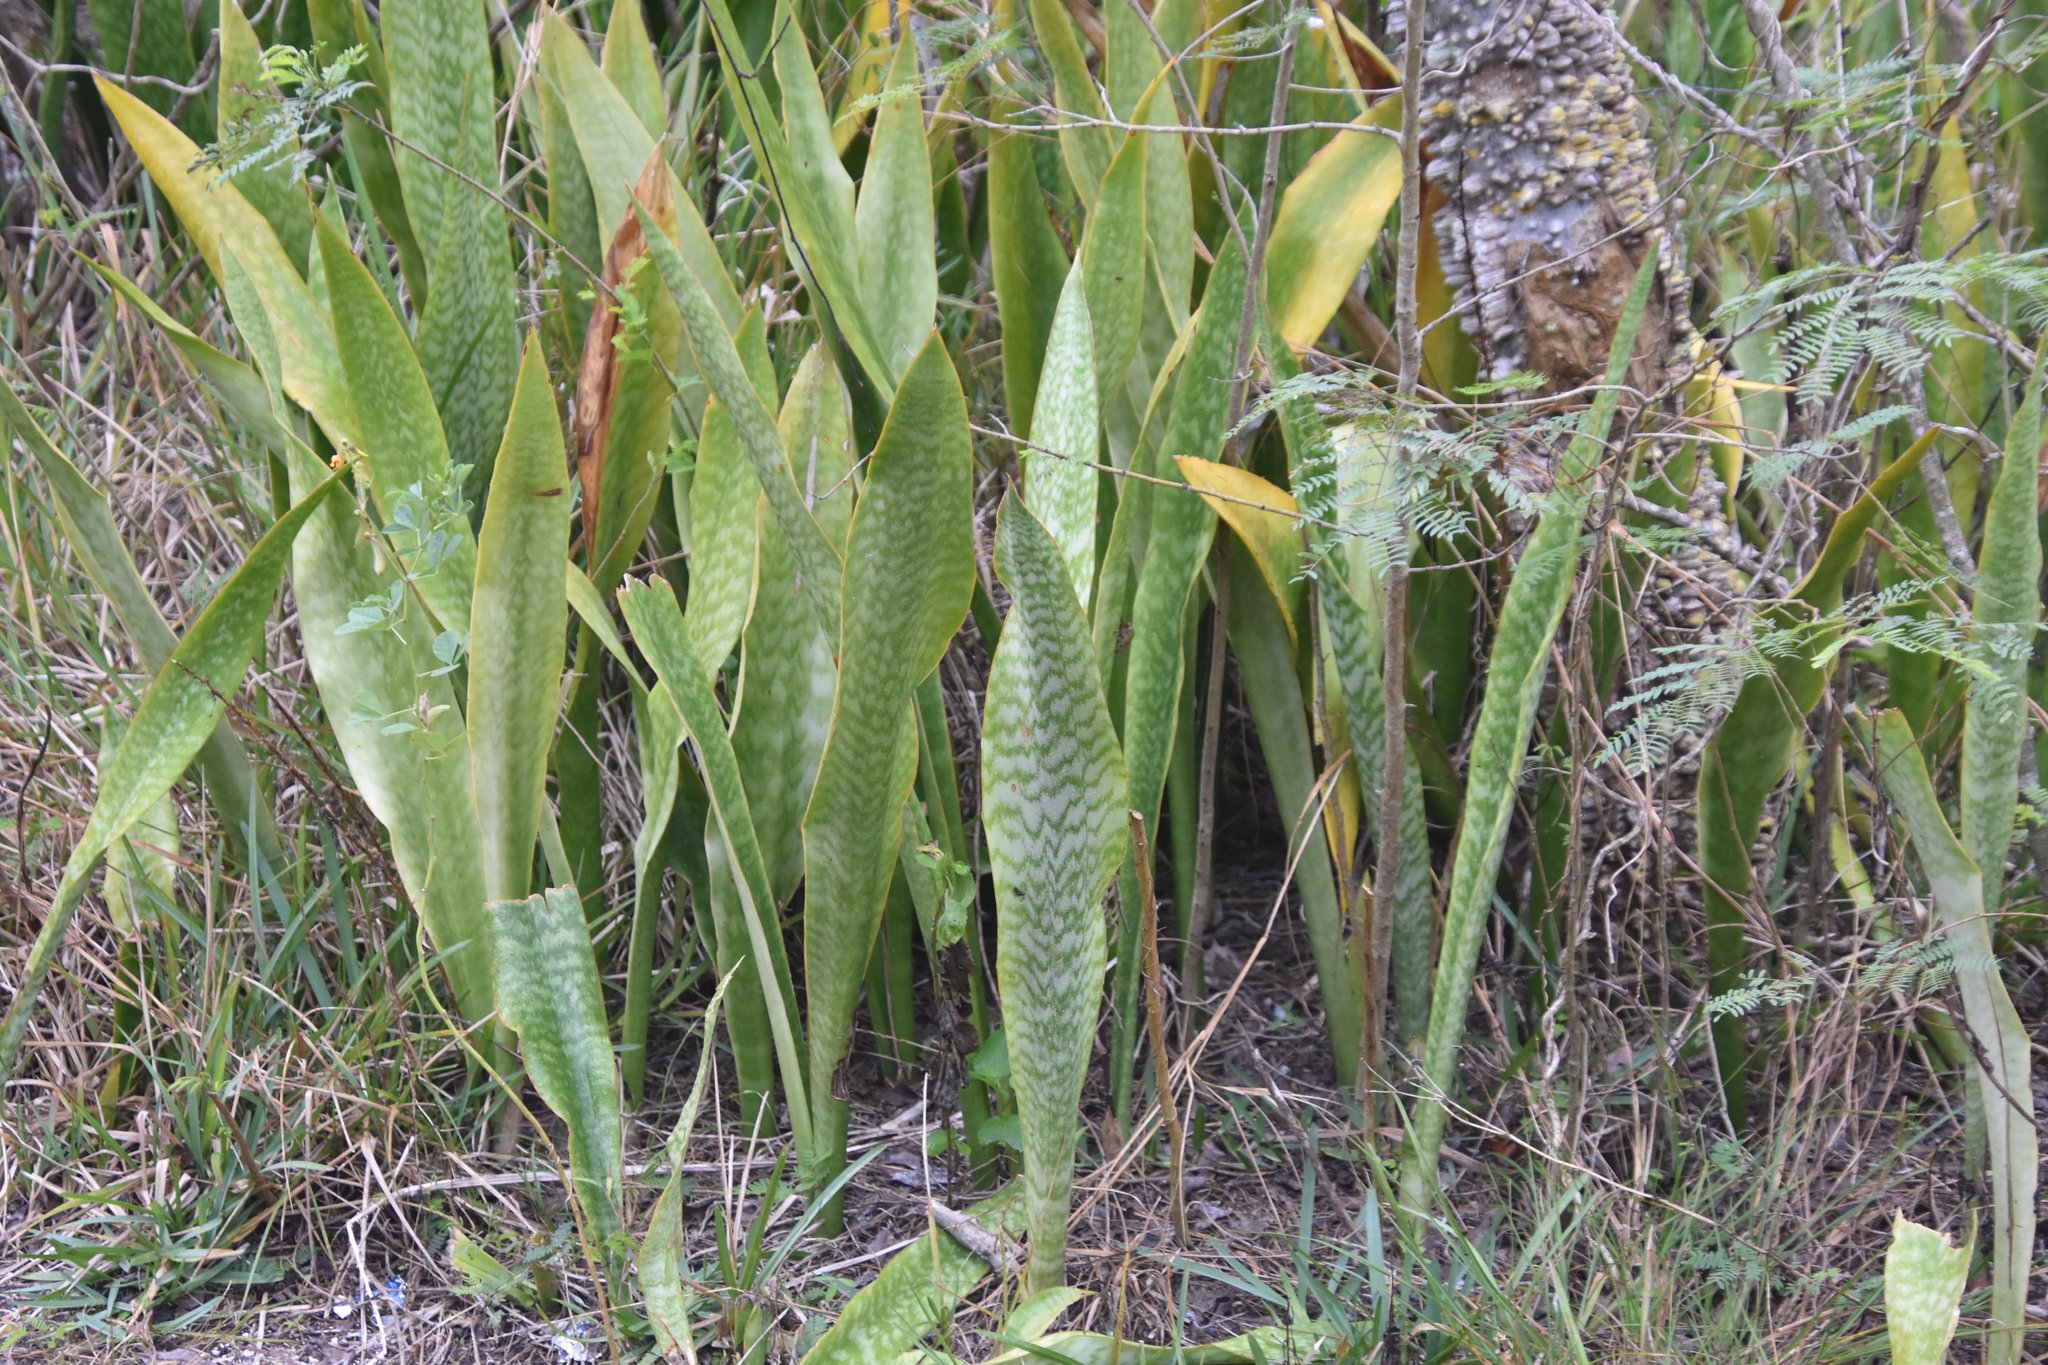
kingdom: Plantae
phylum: Tracheophyta
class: Liliopsida
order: Asparagales
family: Asparagaceae
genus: Dracaena
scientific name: Dracaena hyacinthoides
